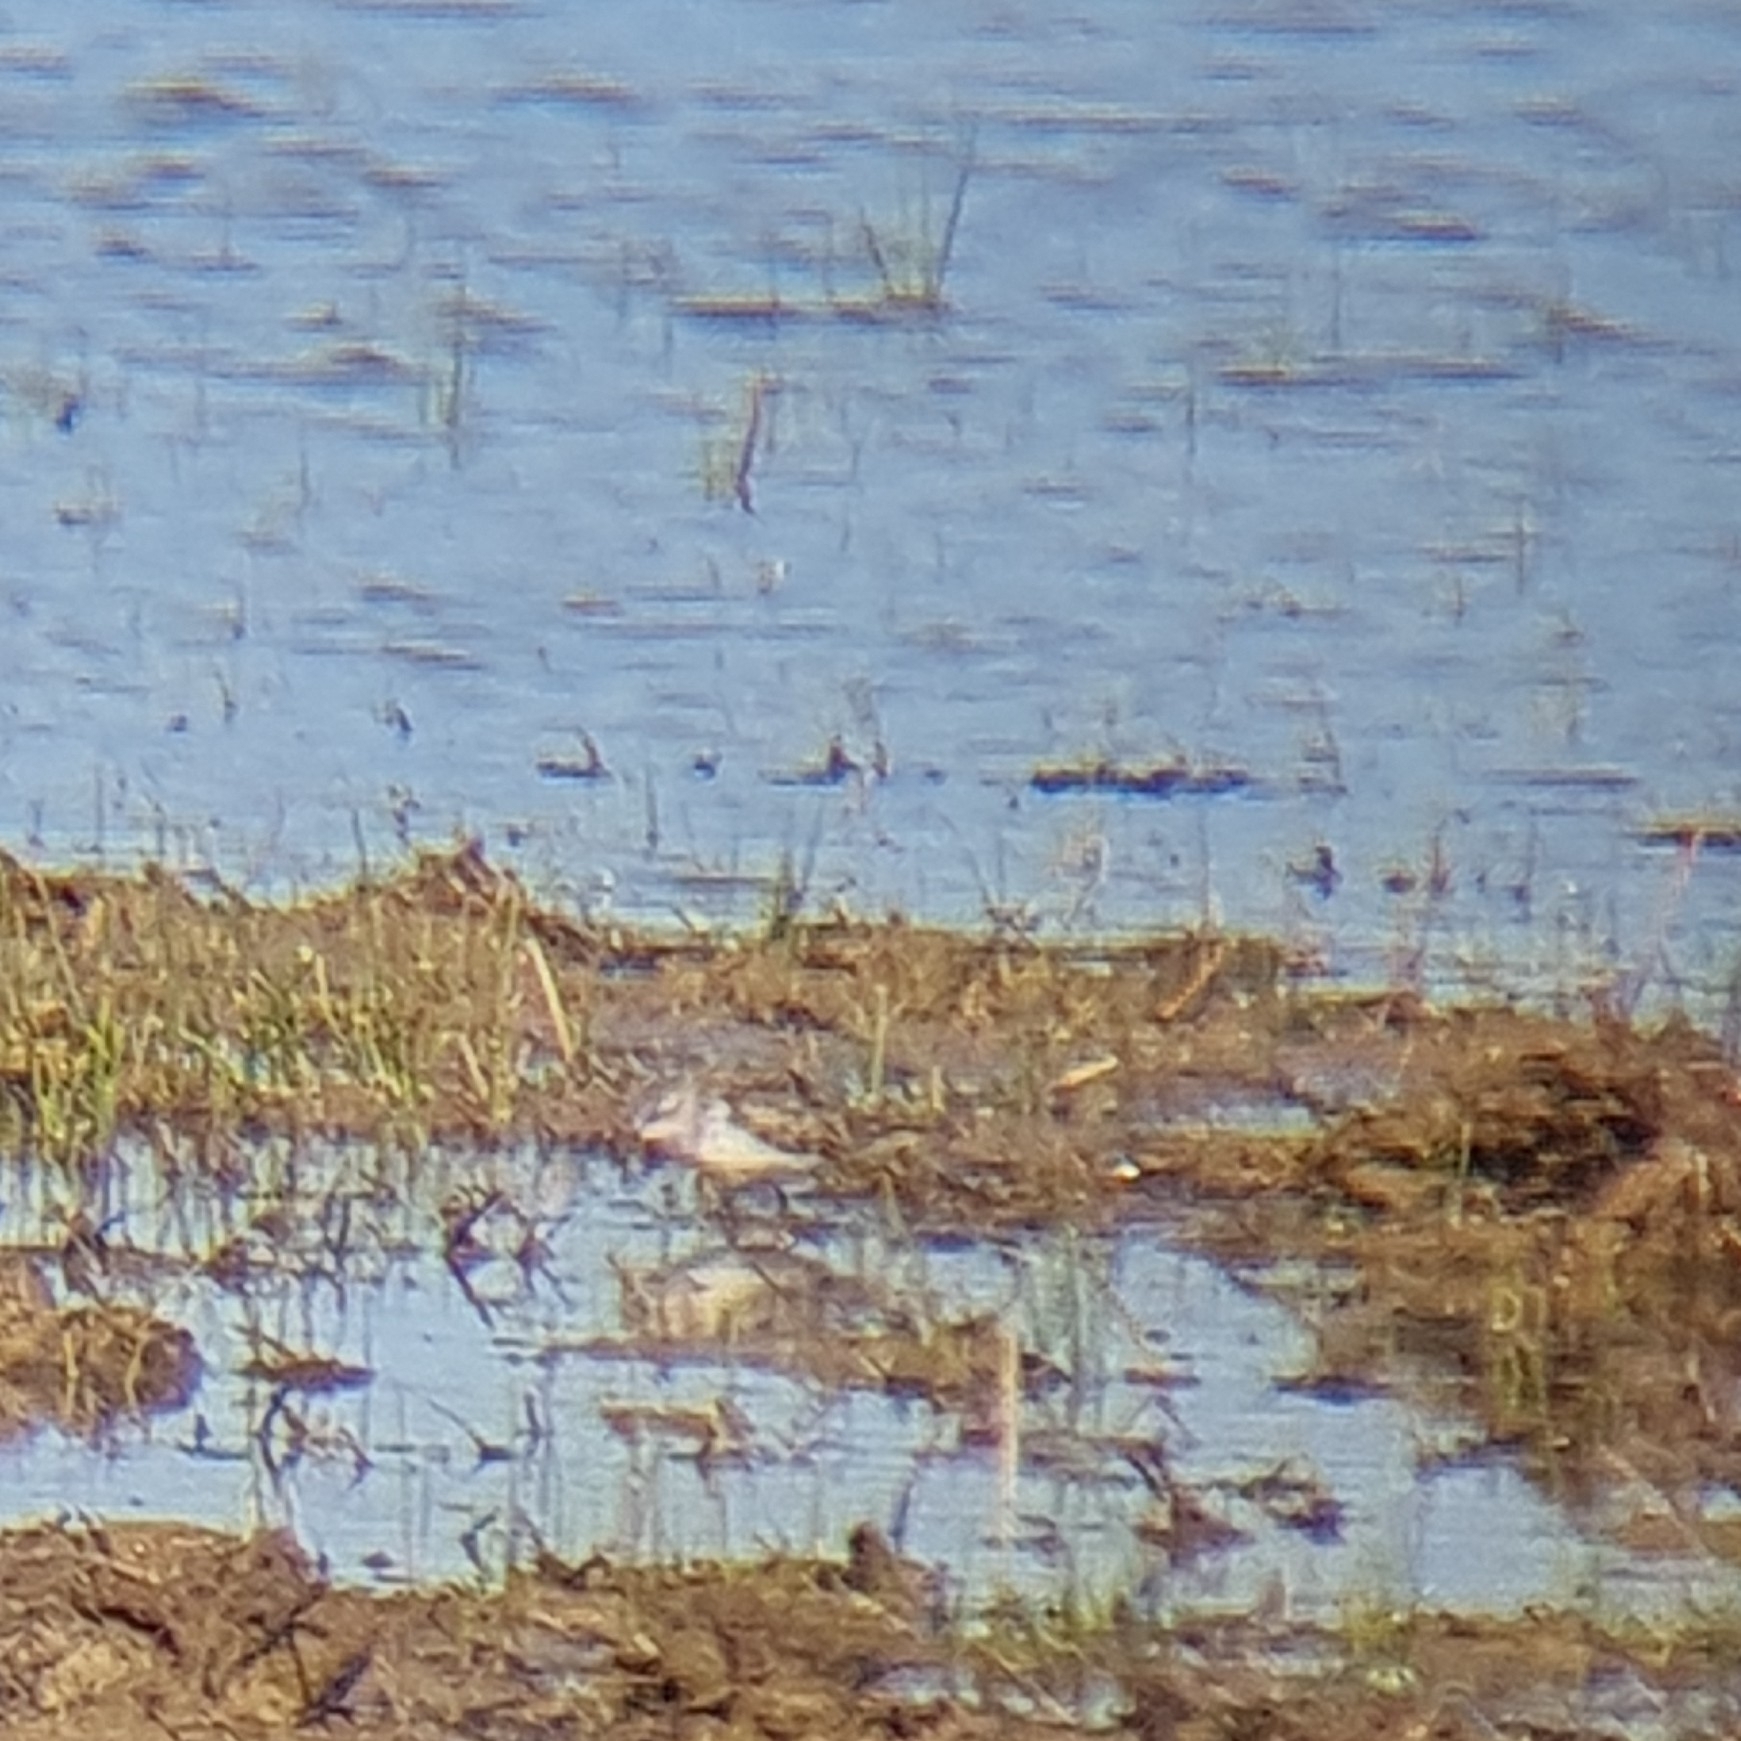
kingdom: Animalia
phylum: Chordata
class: Aves
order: Charadriiformes
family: Scolopacidae
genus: Calidris
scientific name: Calidris minuta
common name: Little stint
